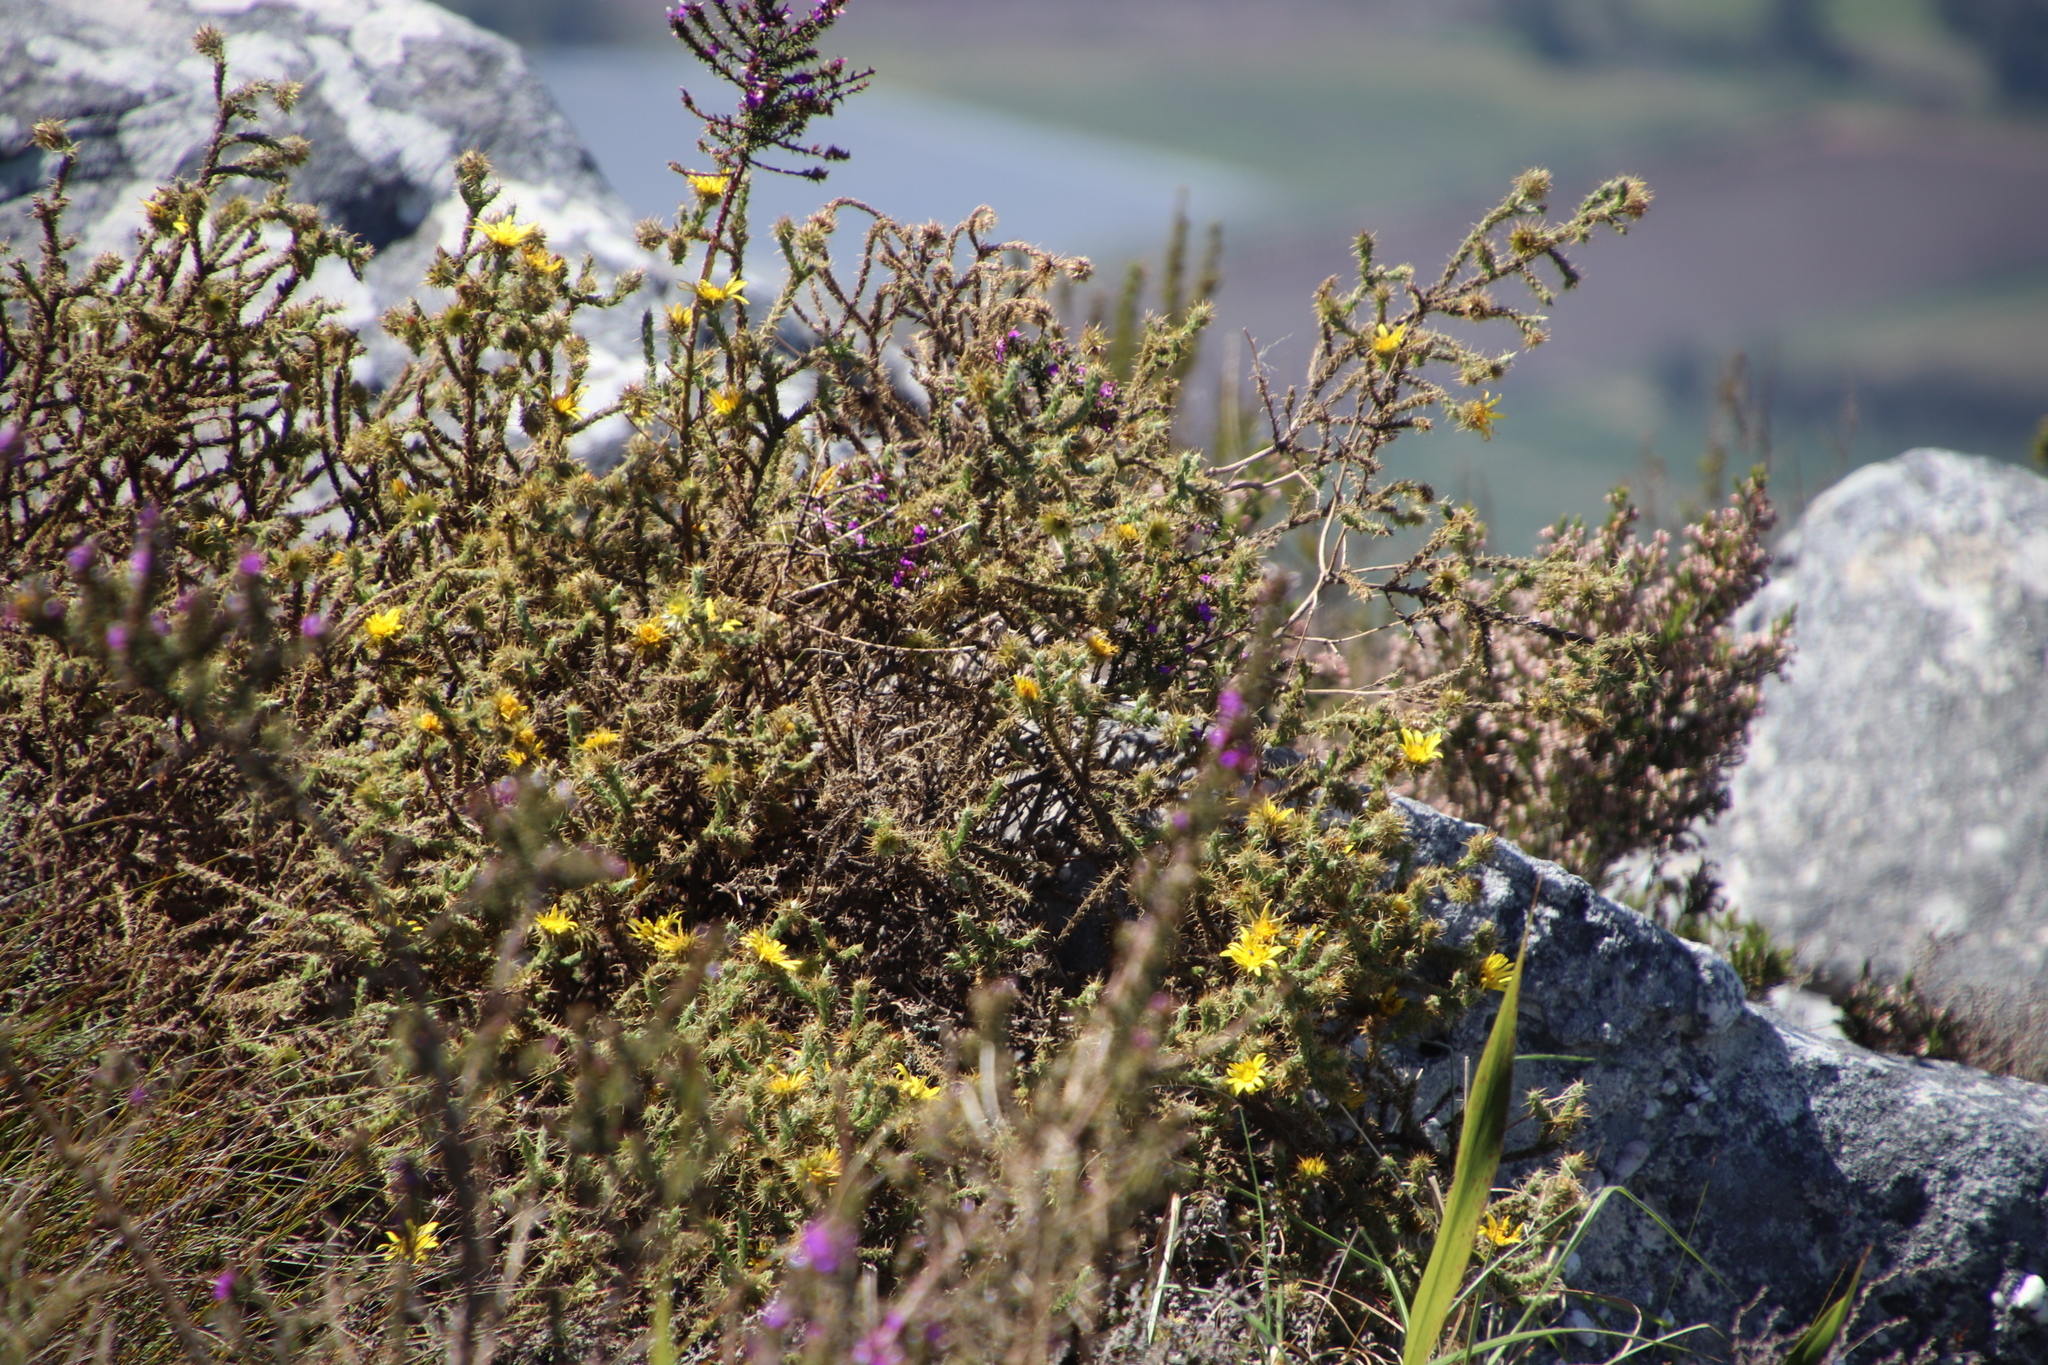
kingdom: Plantae
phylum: Tracheophyta
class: Magnoliopsida
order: Asterales
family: Asteraceae
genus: Cullumia
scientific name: Cullumia reticulata
